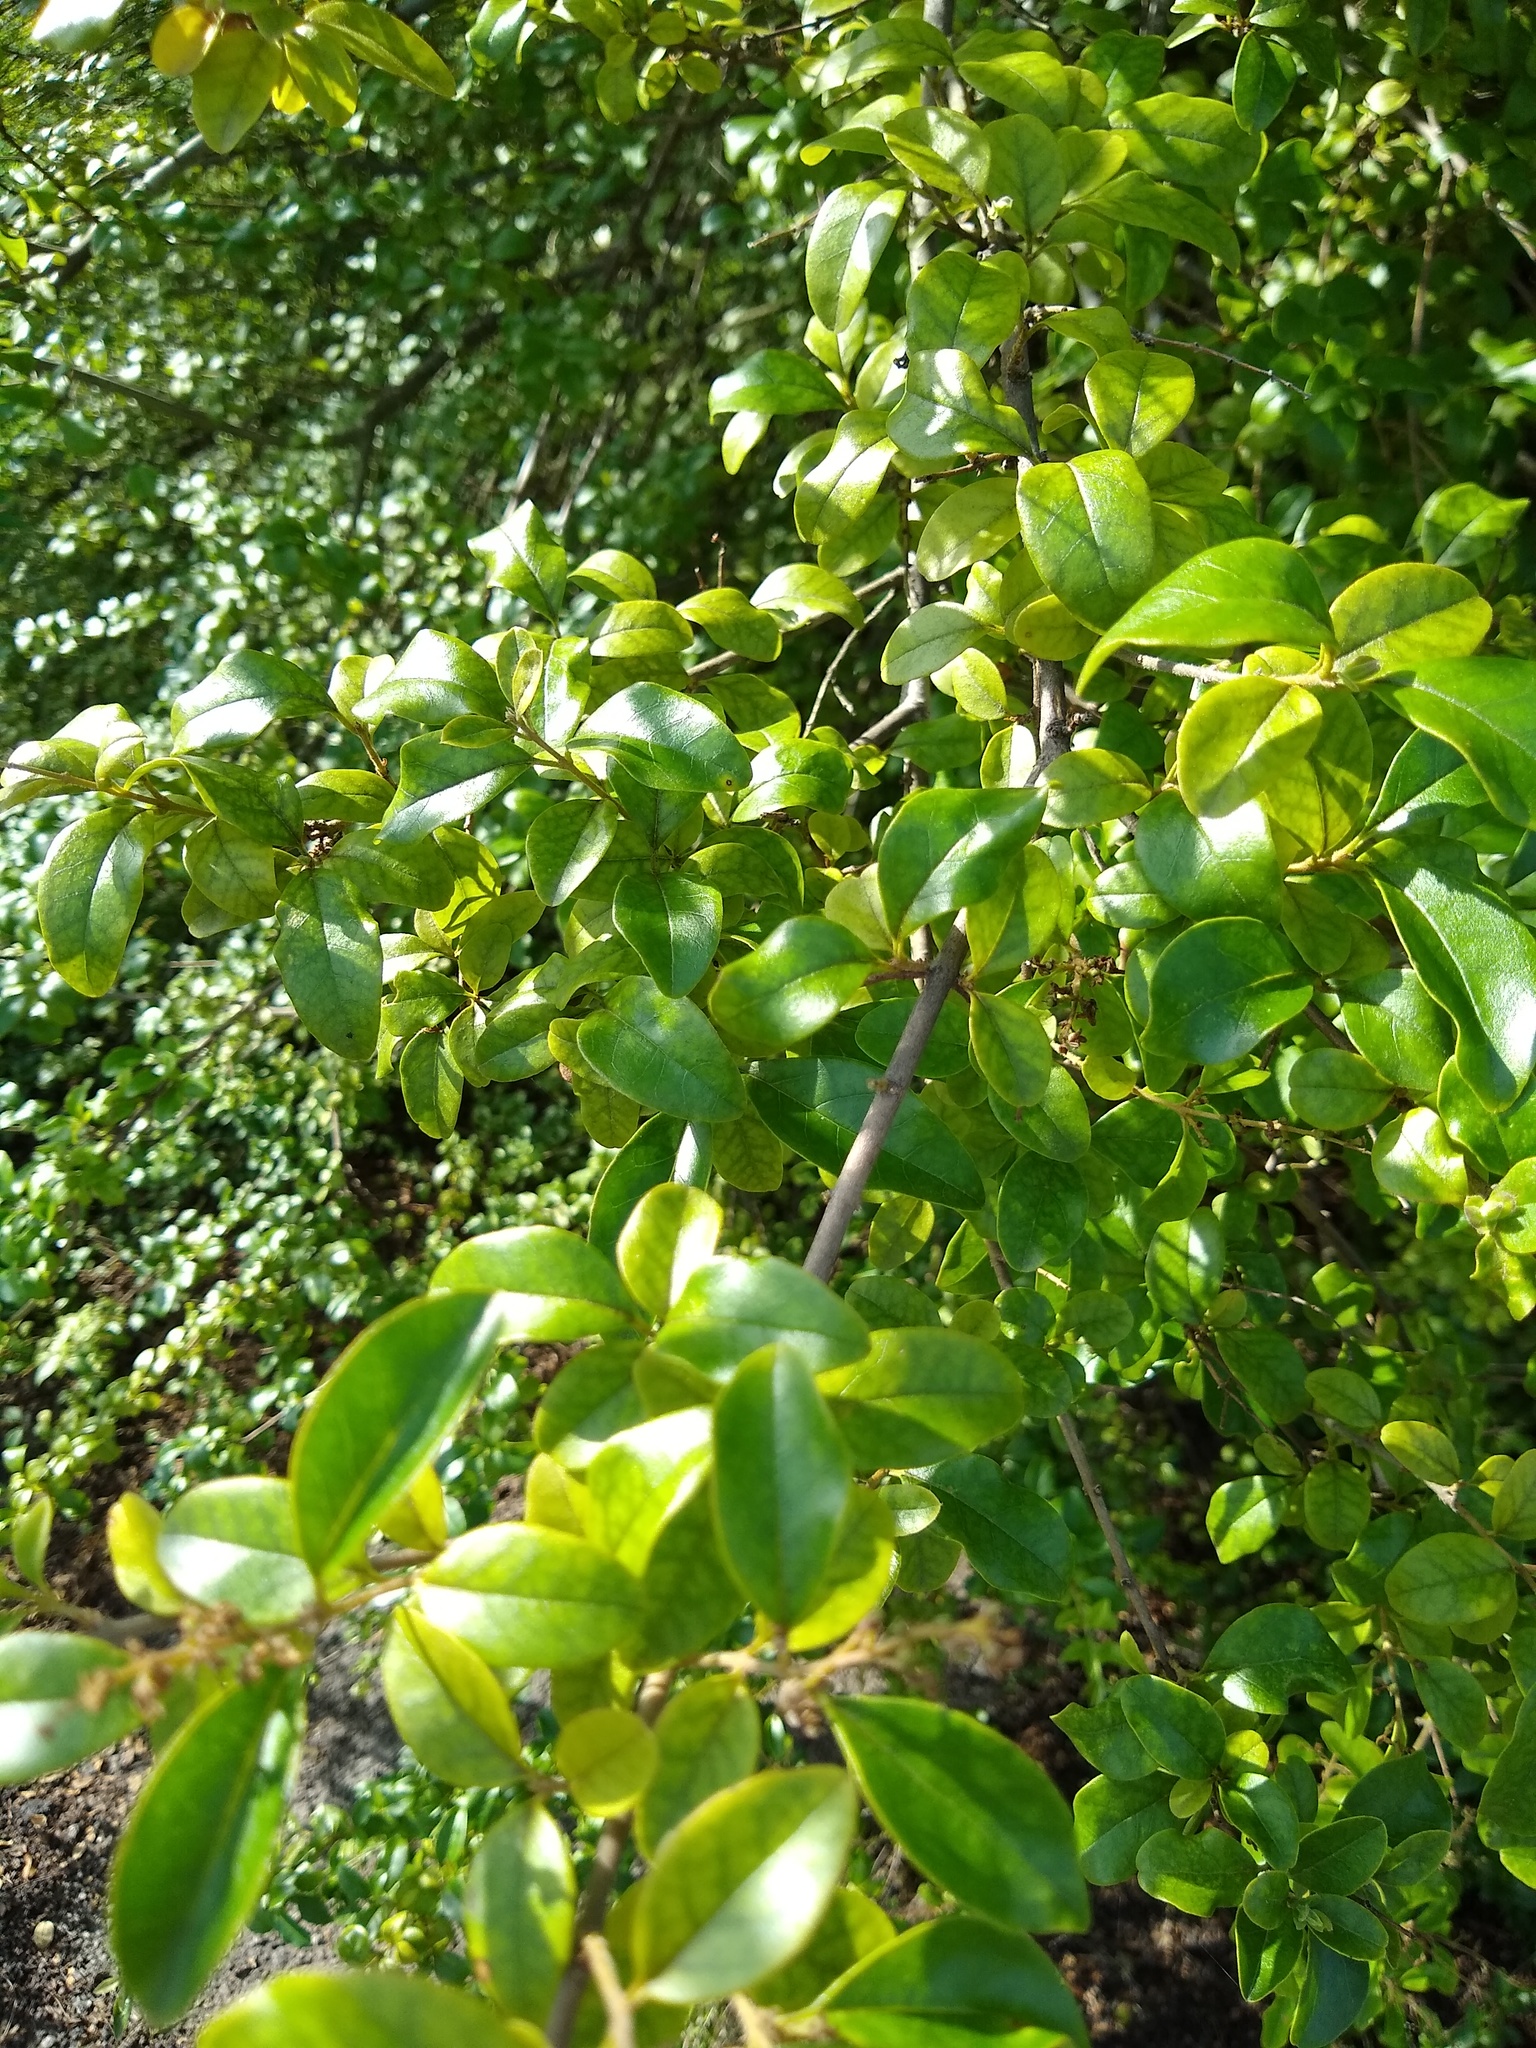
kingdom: Plantae
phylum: Tracheophyta
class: Magnoliopsida
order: Lamiales
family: Oleaceae
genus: Ligustrum
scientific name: Ligustrum sinense
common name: Chinese privet
